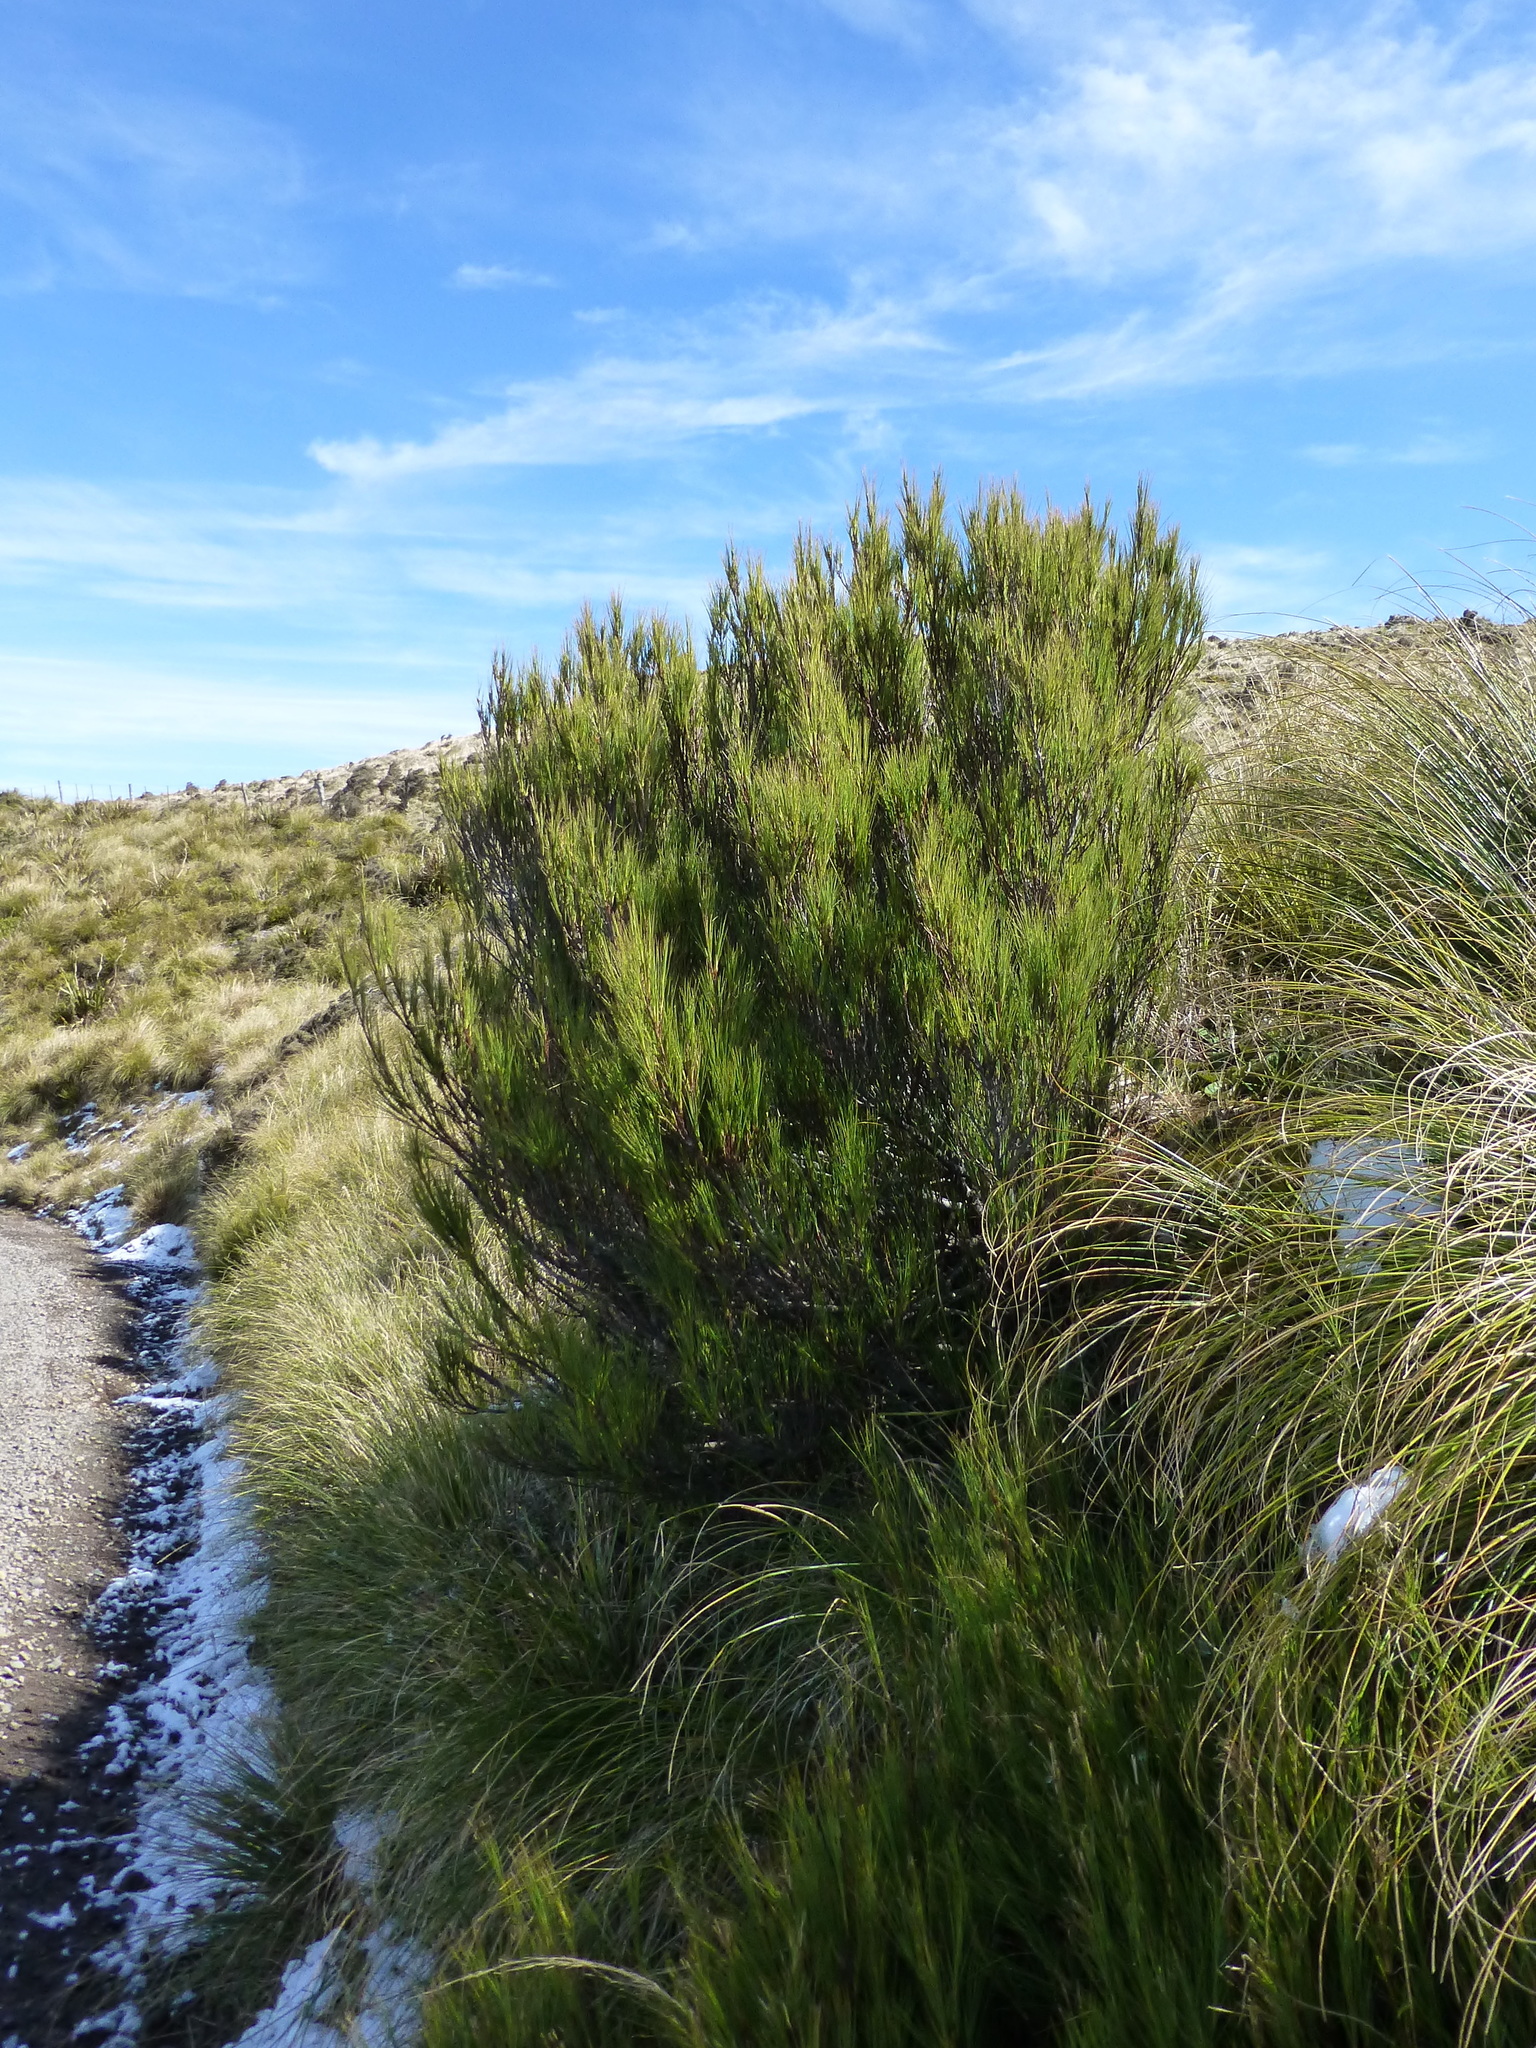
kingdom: Plantae
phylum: Tracheophyta
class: Magnoliopsida
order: Ericales
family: Ericaceae
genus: Dracophyllum
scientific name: Dracophyllum acerosum
